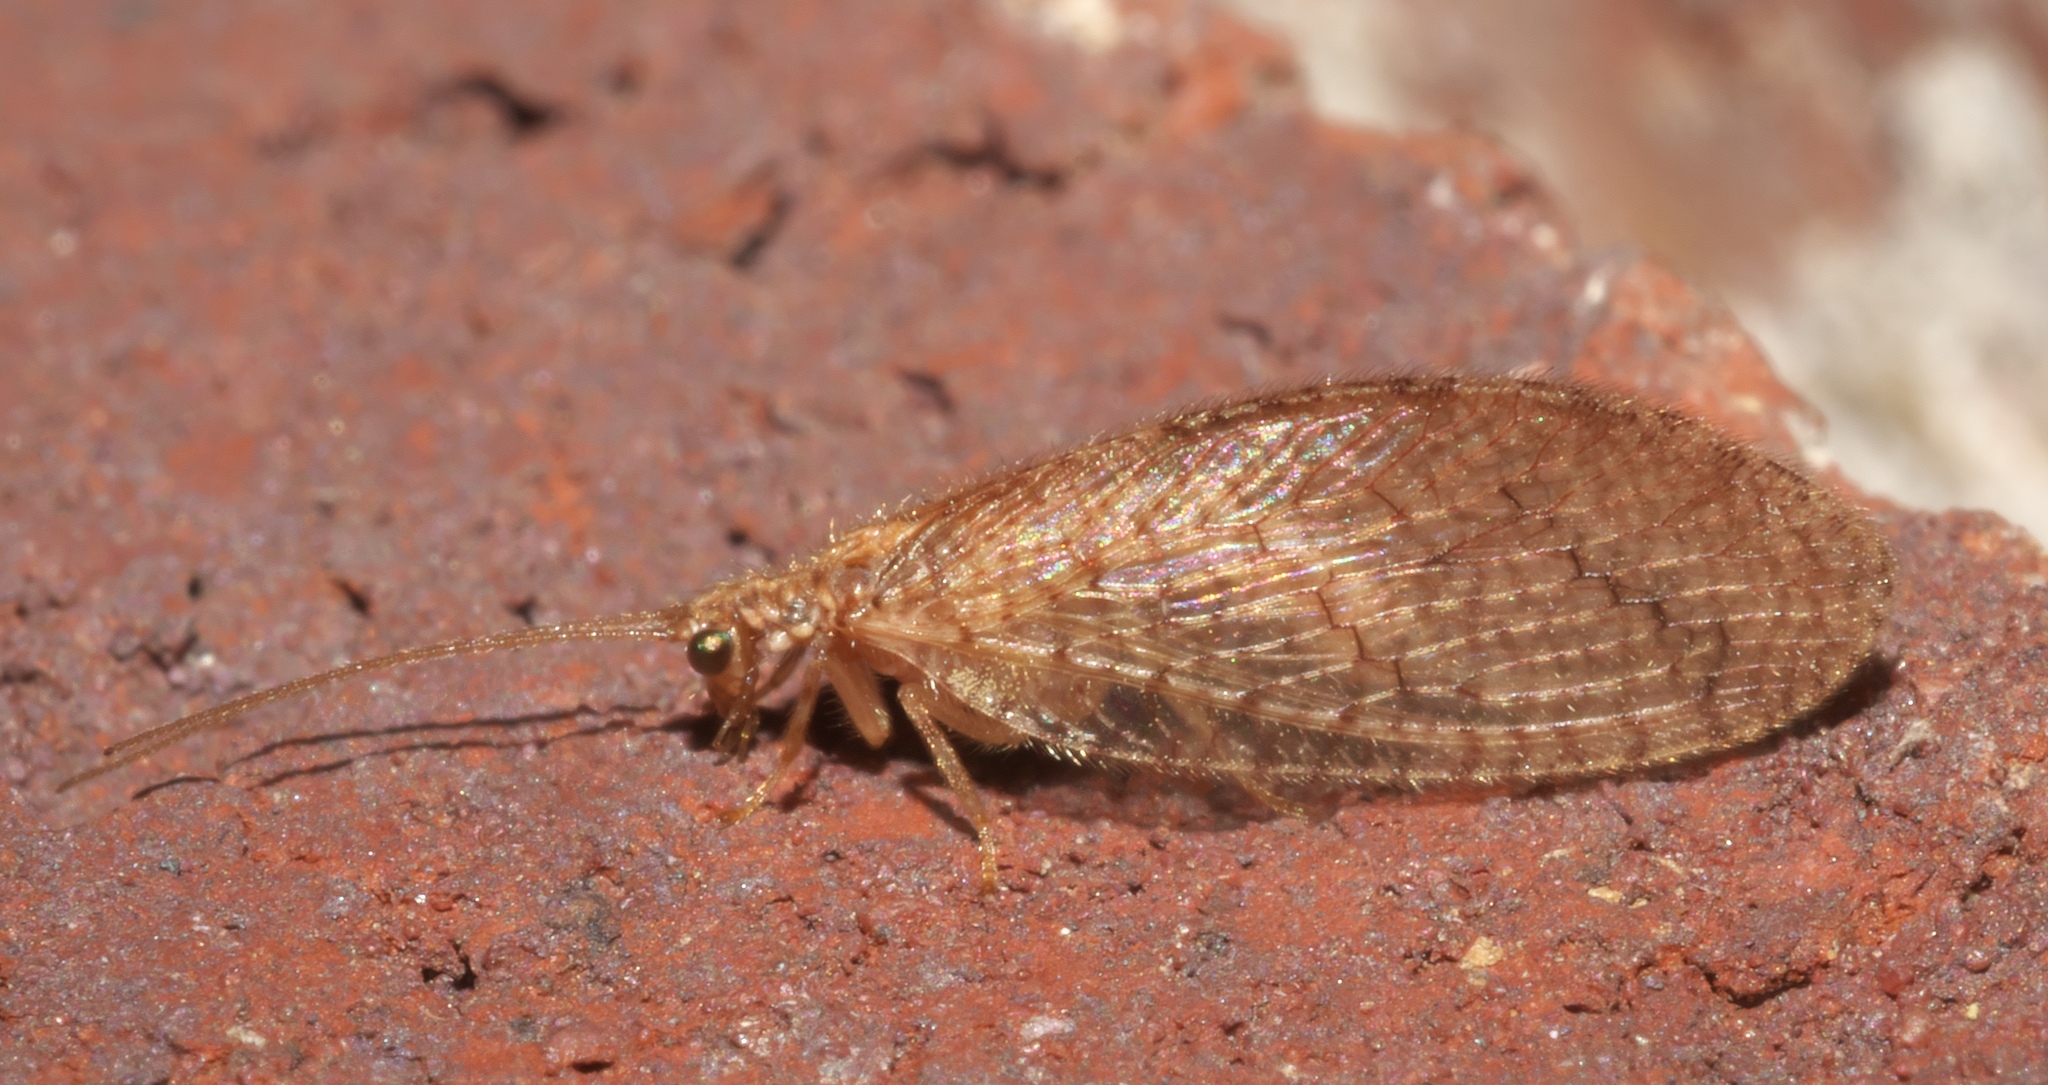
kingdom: Animalia
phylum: Arthropoda
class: Insecta
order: Neuroptera
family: Hemerobiidae
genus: Micromus
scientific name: Micromus posticus
